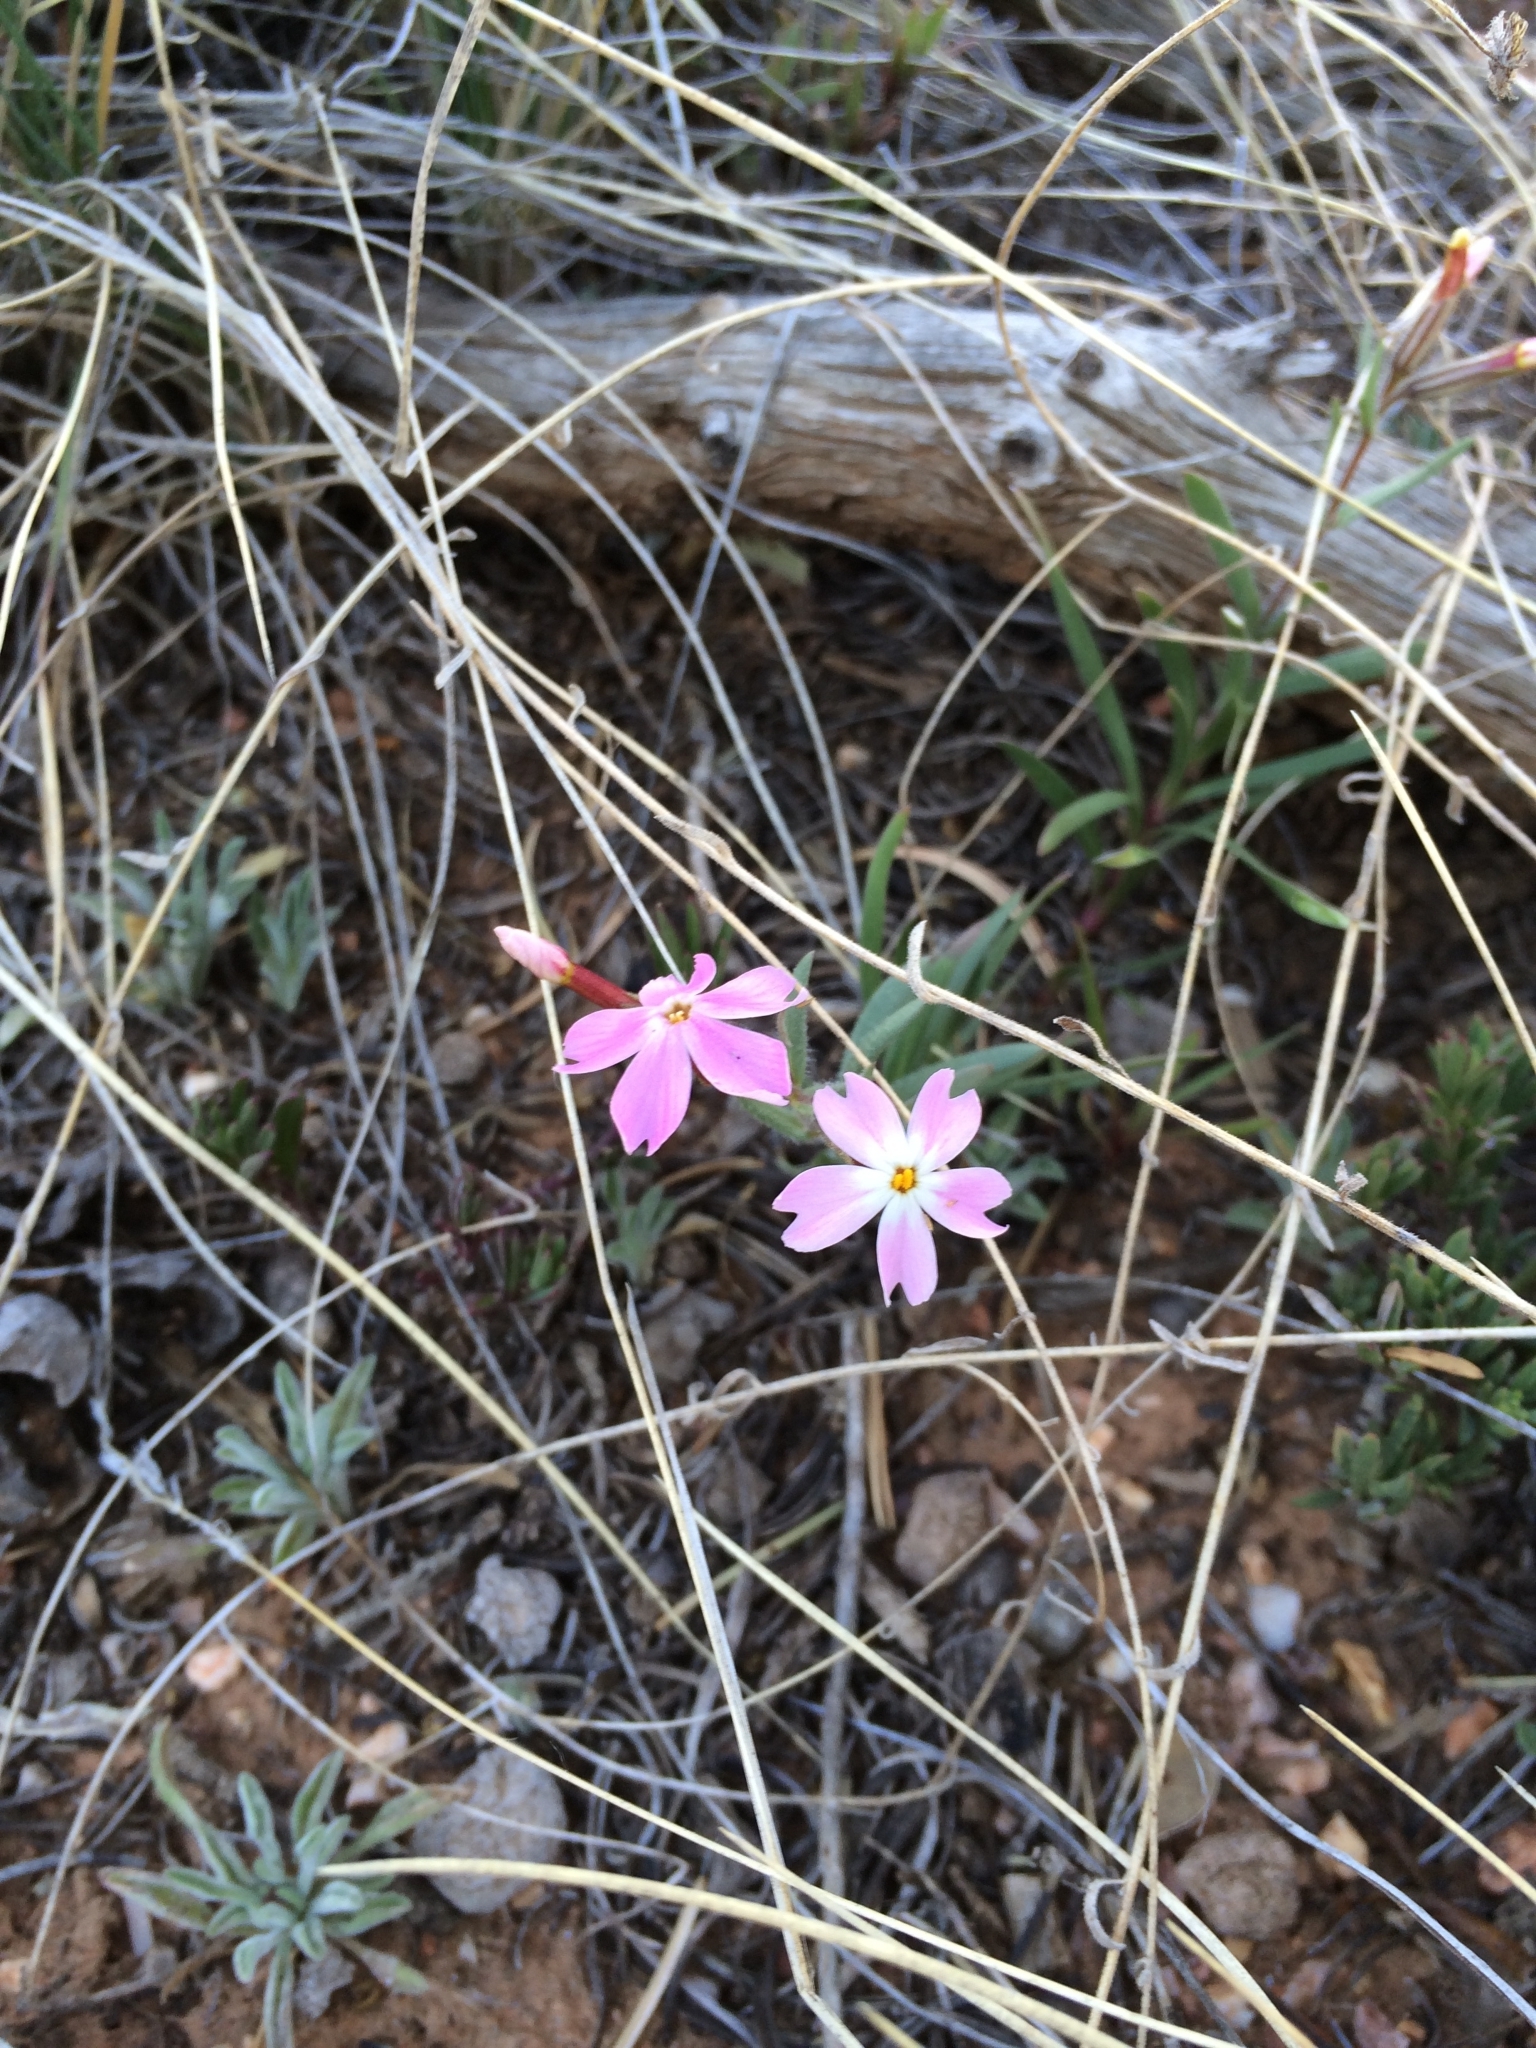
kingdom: Plantae
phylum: Tracheophyta
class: Magnoliopsida
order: Ericales
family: Polemoniaceae
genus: Phlox
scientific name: Phlox amabilis
